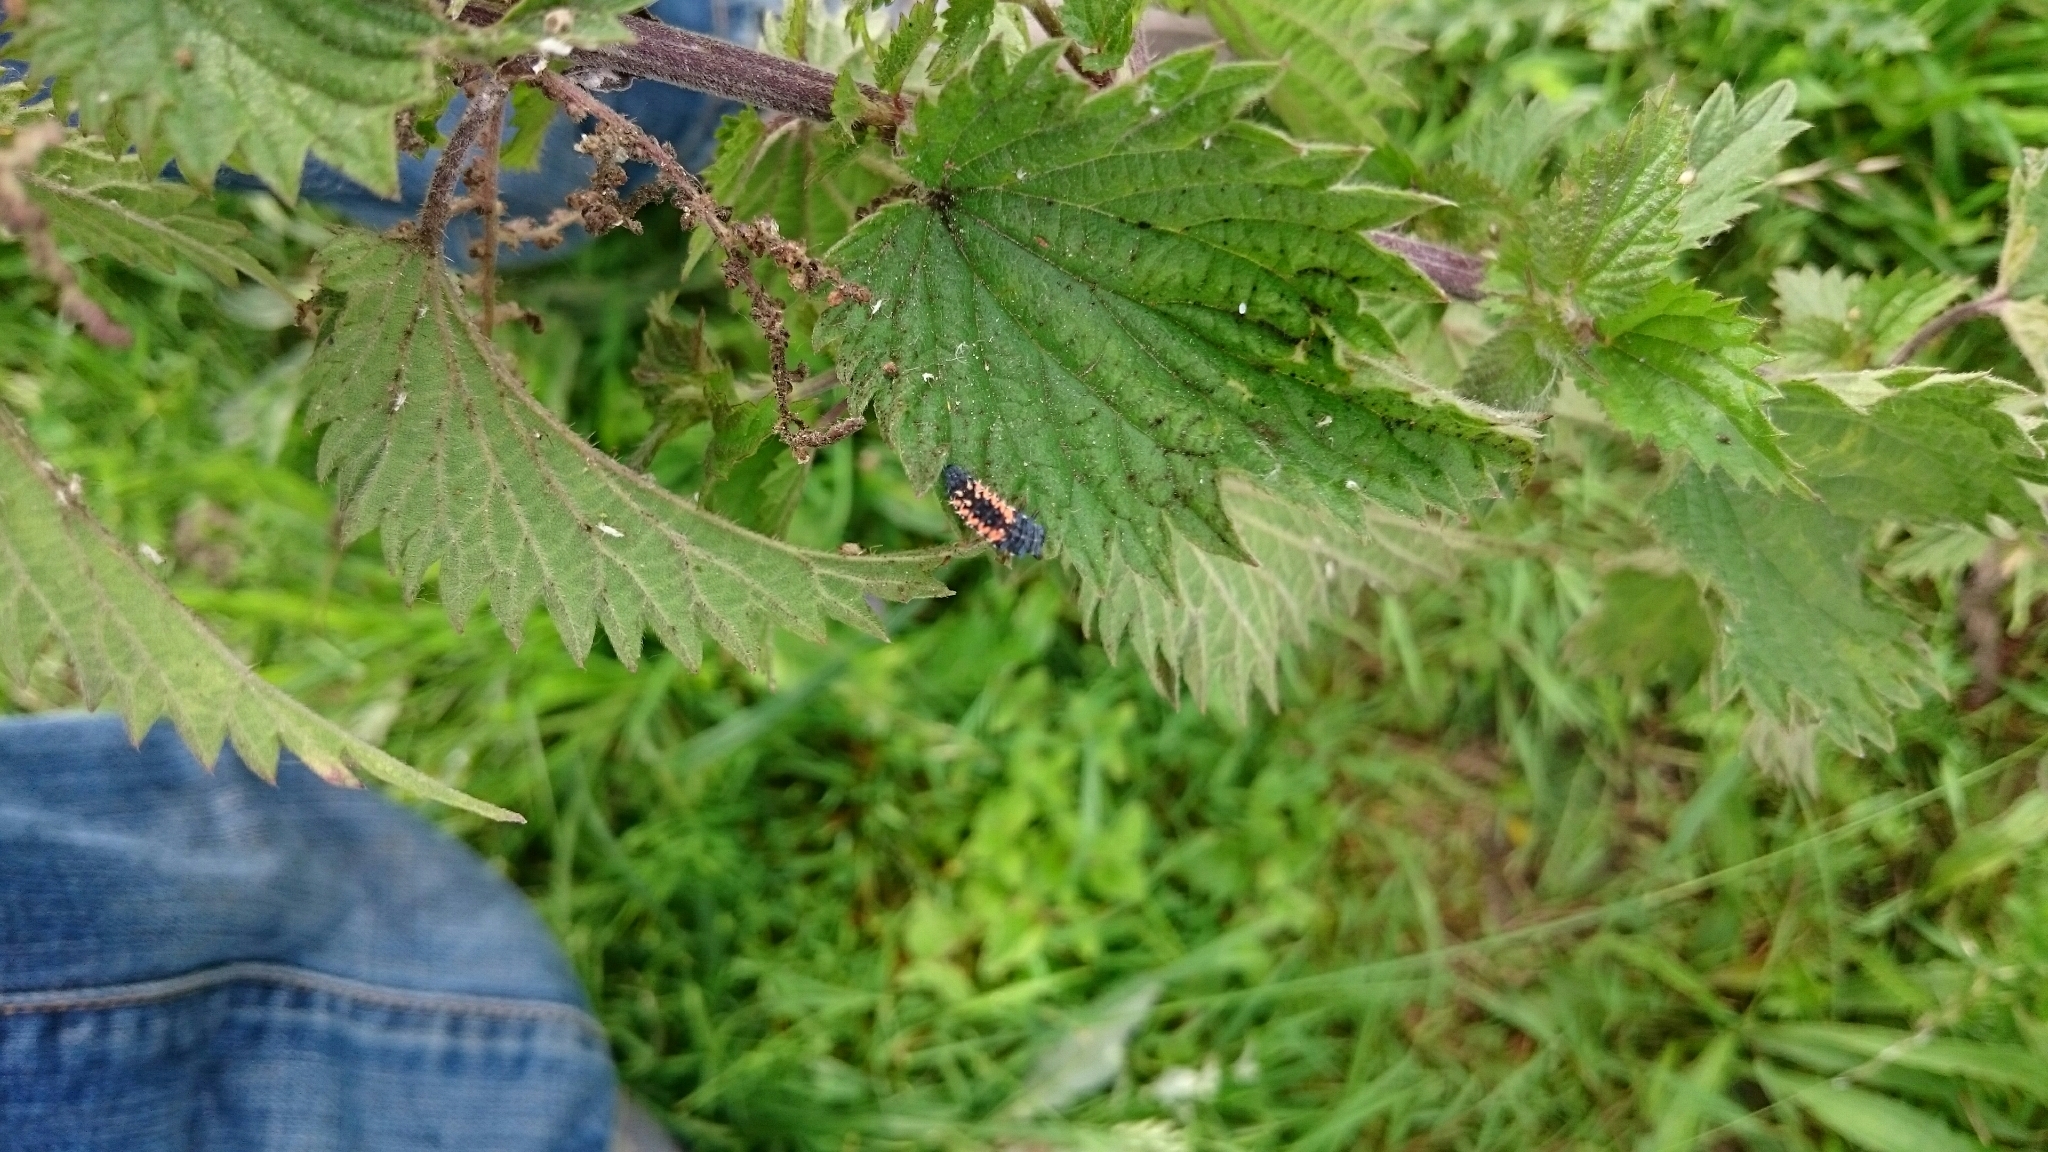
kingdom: Animalia
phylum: Arthropoda
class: Insecta
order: Coleoptera
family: Coccinellidae
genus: Harmonia
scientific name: Harmonia axyridis
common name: Harlequin ladybird
